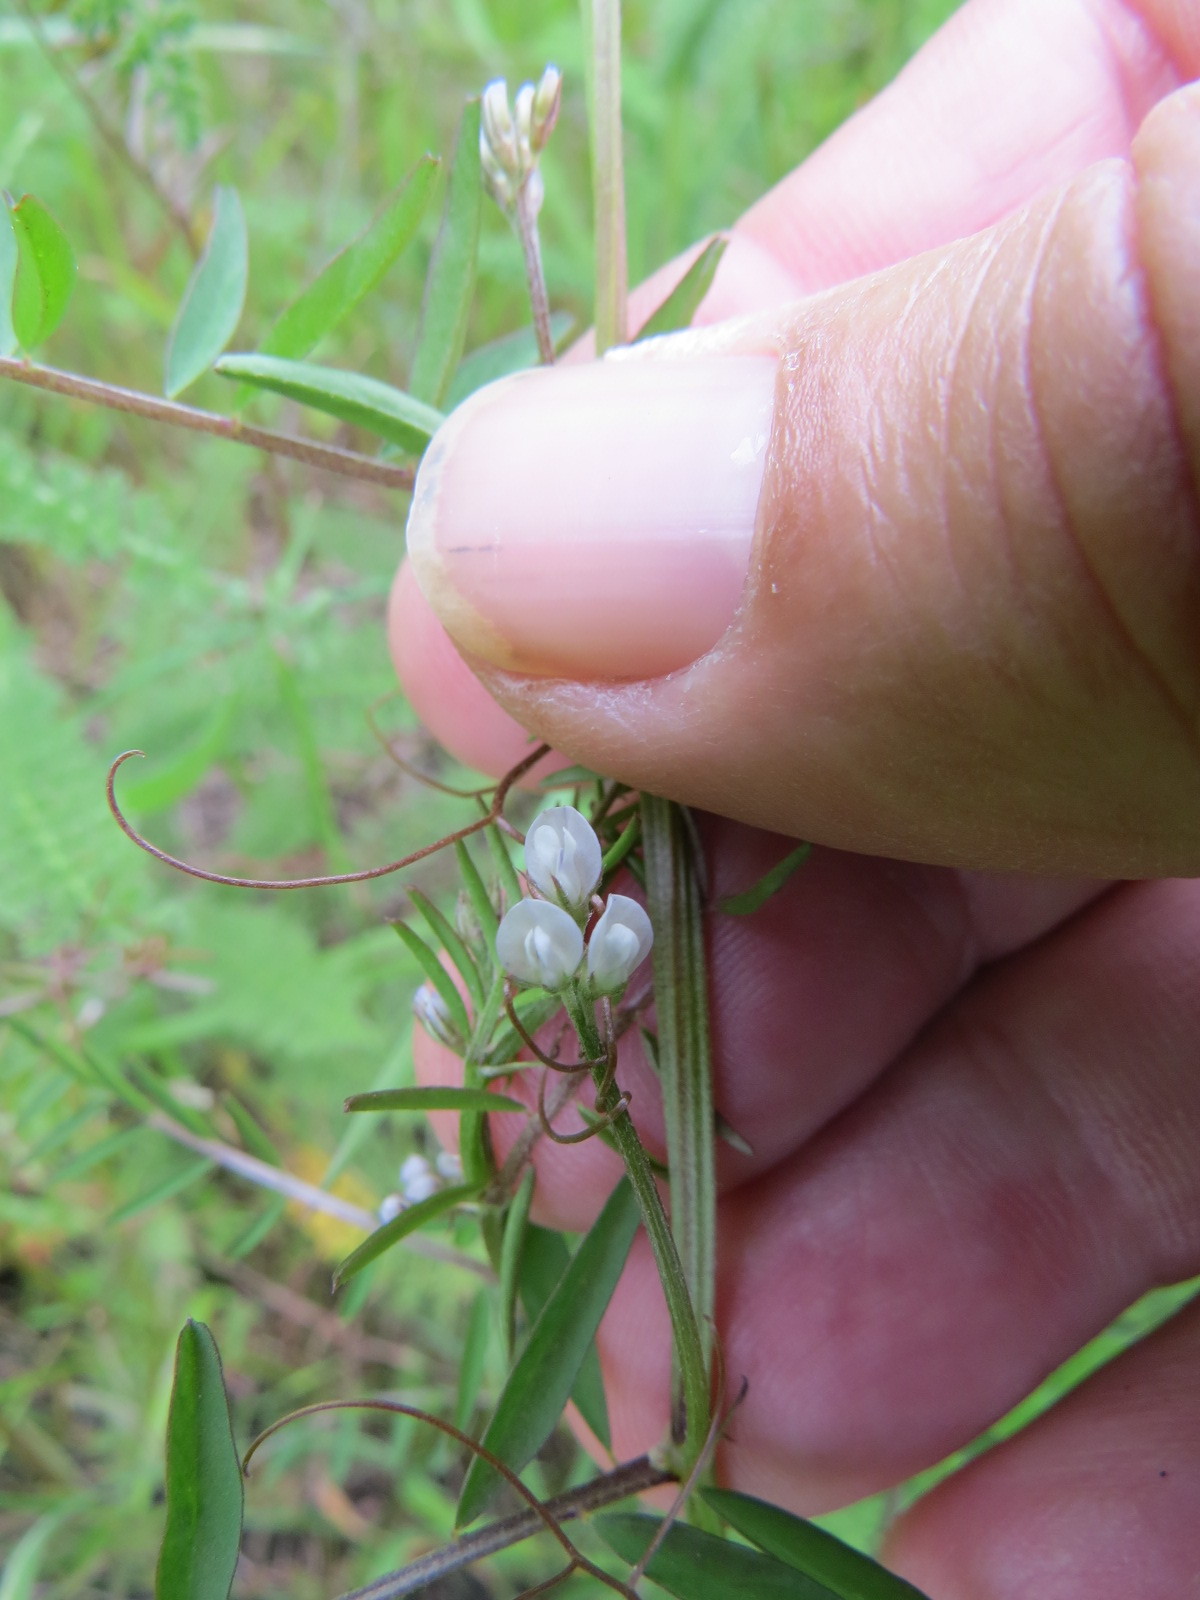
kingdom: Plantae
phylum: Tracheophyta
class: Magnoliopsida
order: Fabales
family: Fabaceae
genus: Vicia
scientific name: Vicia hirsuta
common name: Tiny vetch
